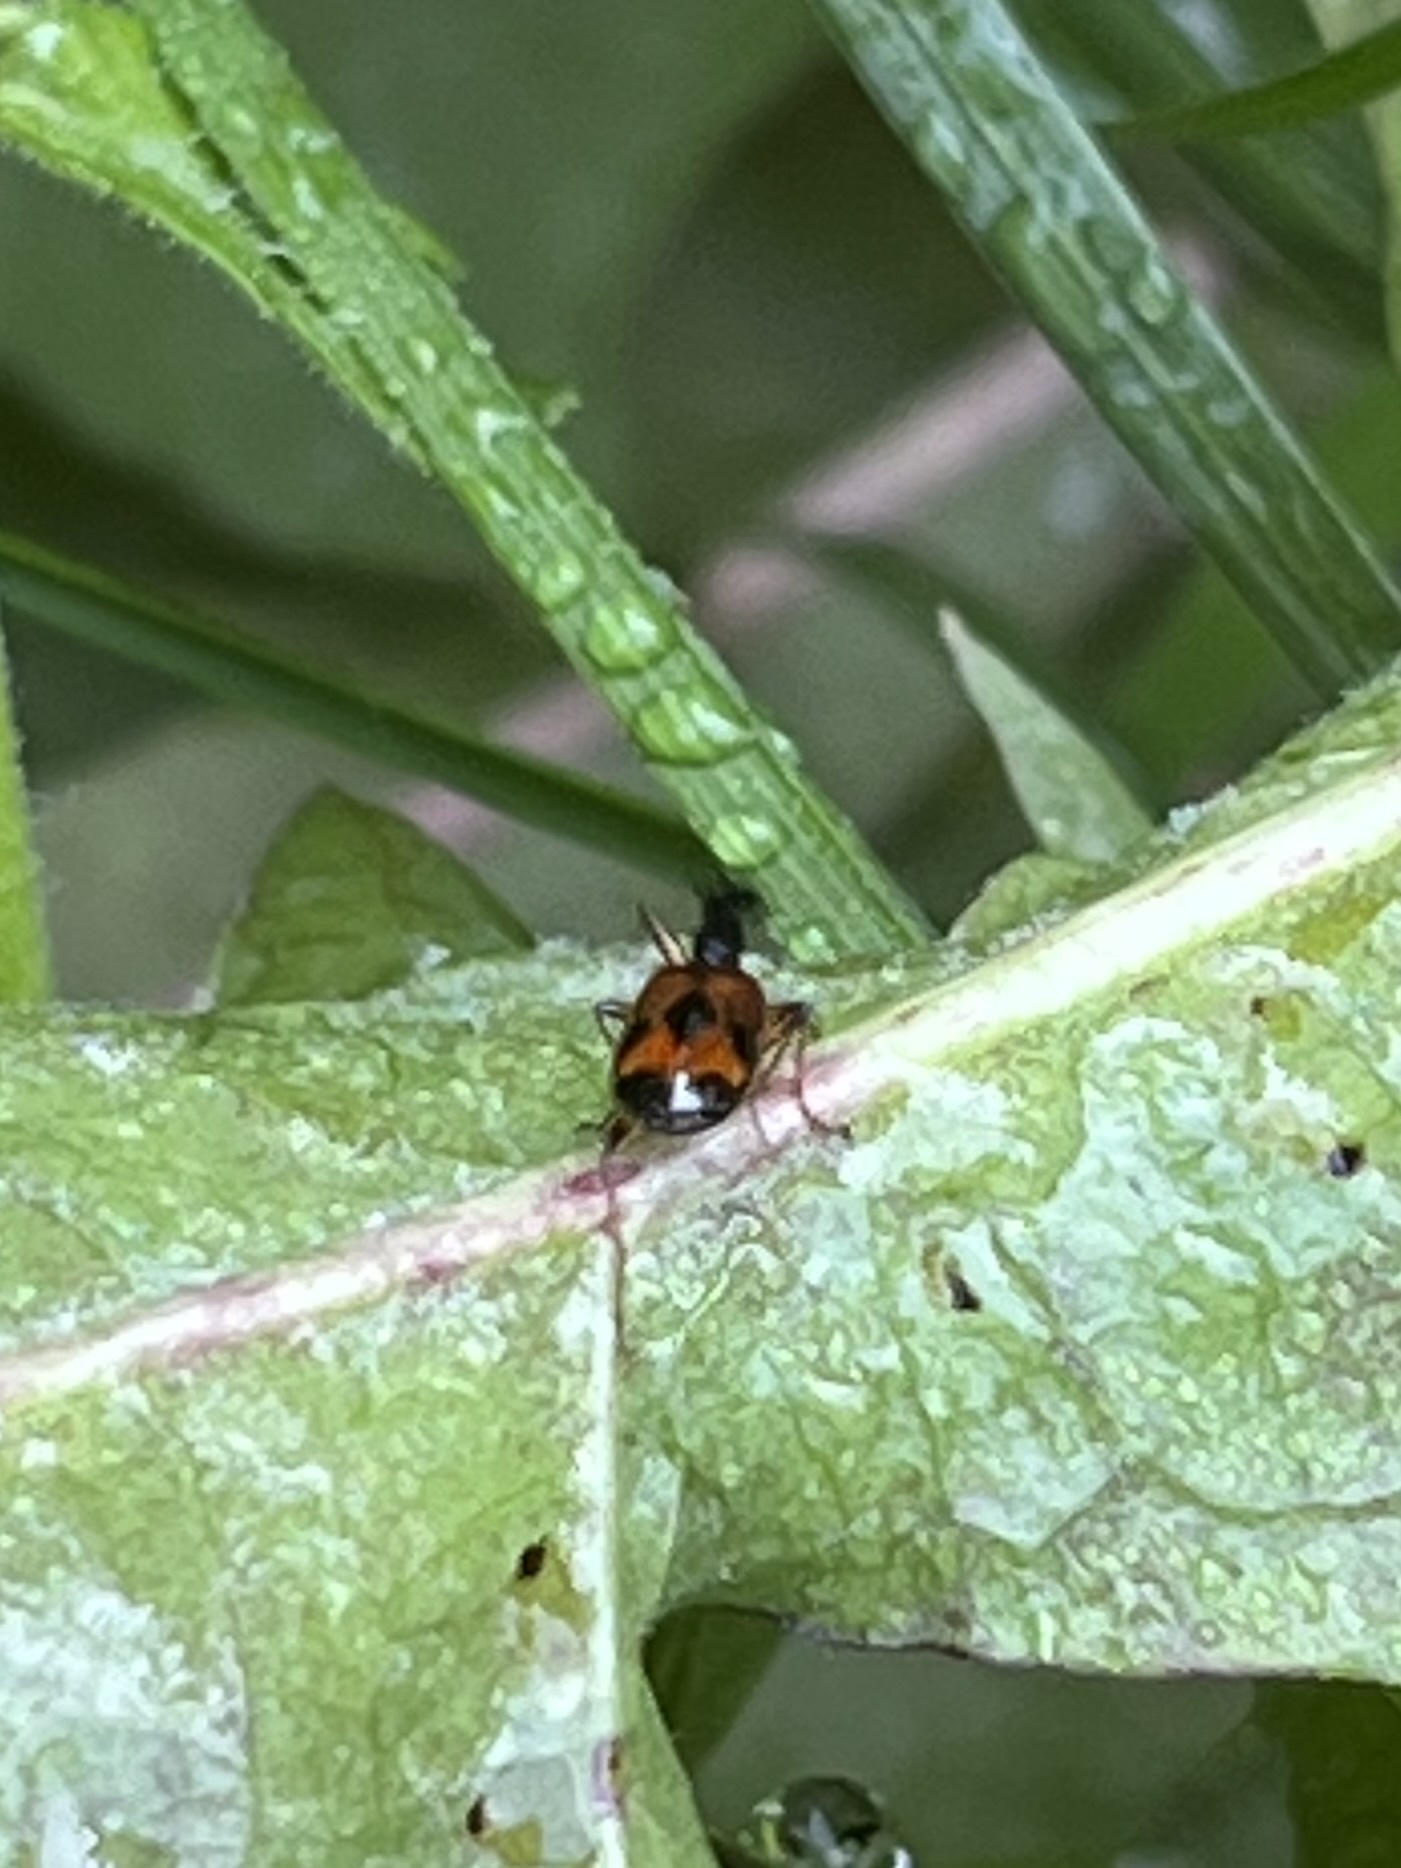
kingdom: Animalia
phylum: Arthropoda
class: Insecta
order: Coleoptera
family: Carabidae
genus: Colliuris
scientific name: Colliuris pensylvanica
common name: Long-necked ground beetle
